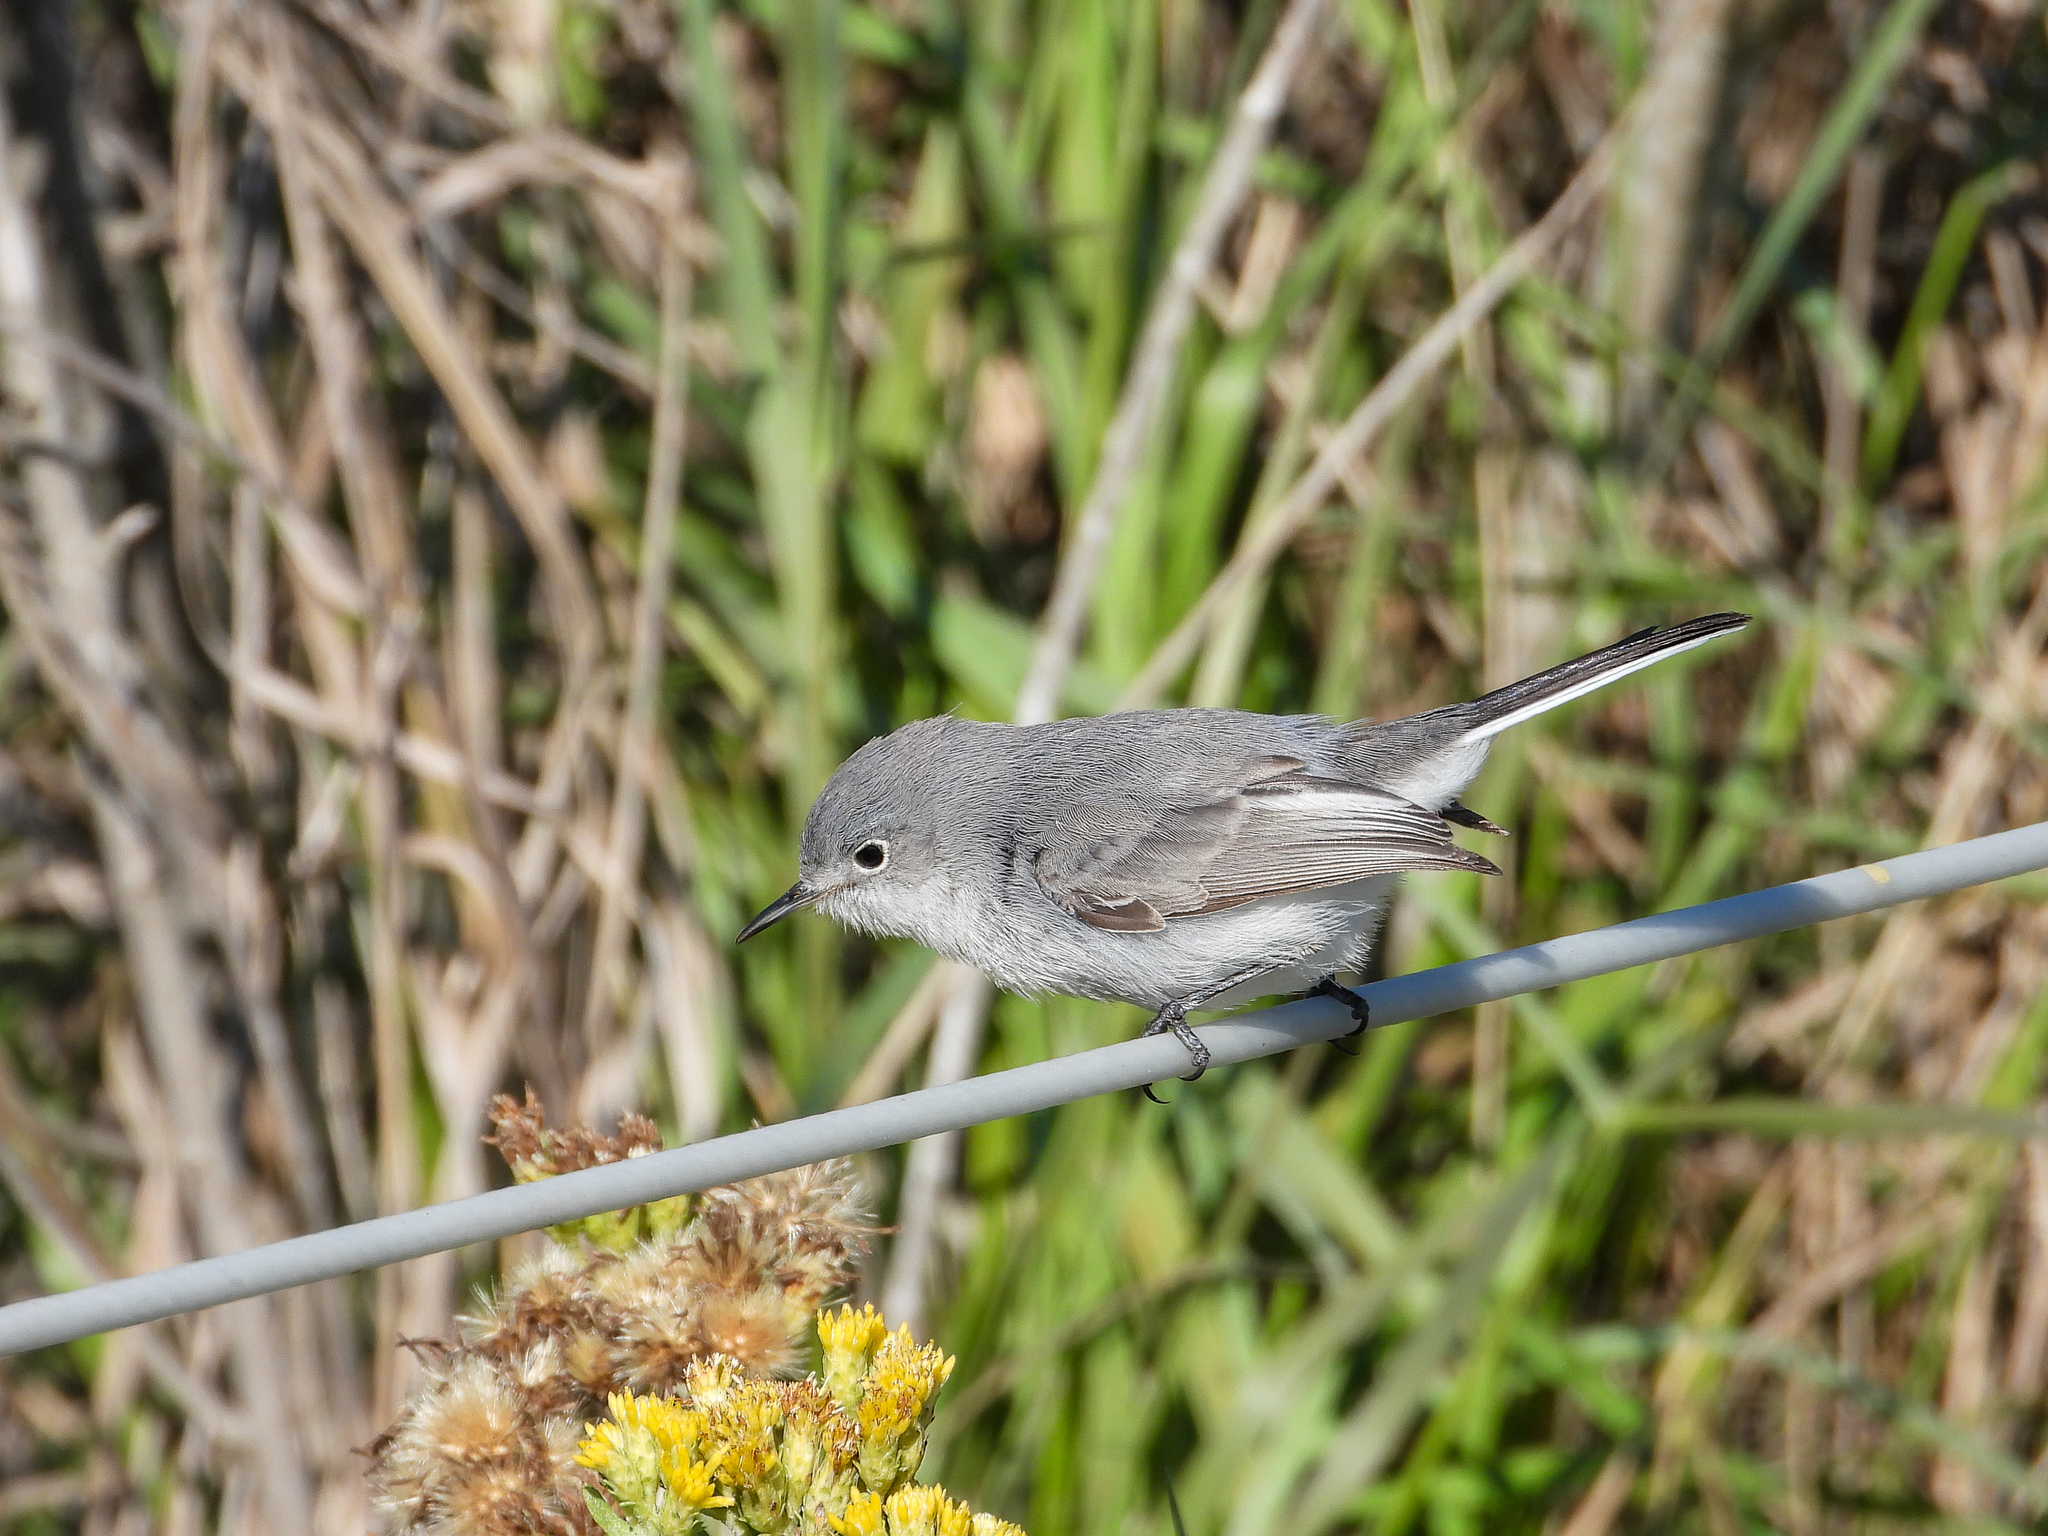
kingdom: Animalia
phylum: Chordata
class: Aves
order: Passeriformes
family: Polioptilidae
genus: Polioptila
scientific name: Polioptila caerulea
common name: Blue-gray gnatcatcher
